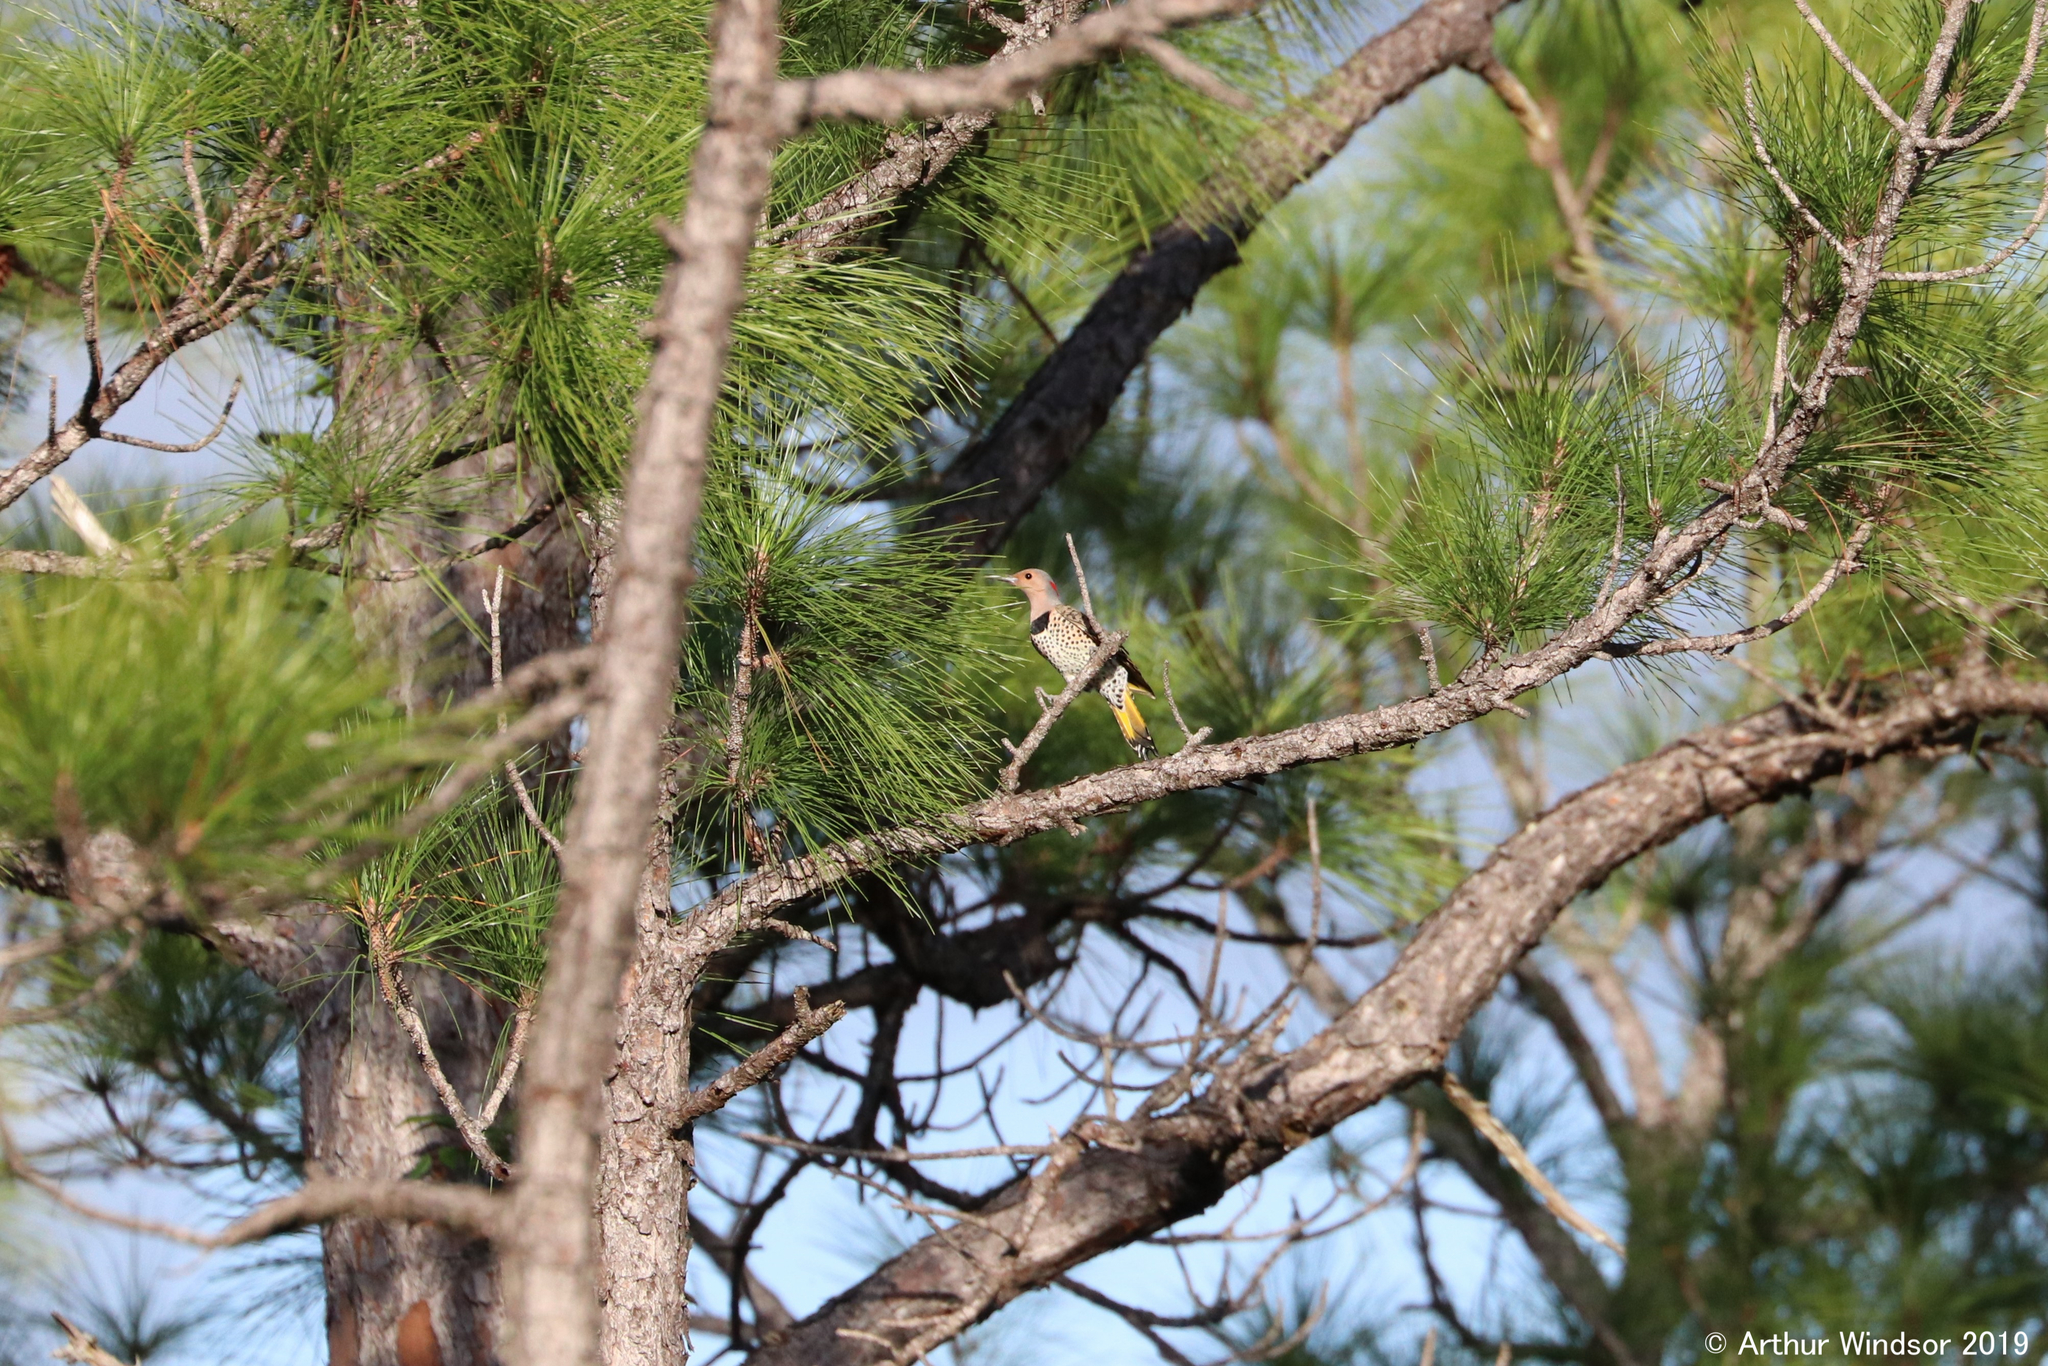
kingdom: Animalia
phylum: Chordata
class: Aves
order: Piciformes
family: Picidae
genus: Colaptes
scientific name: Colaptes auratus
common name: Northern flicker
